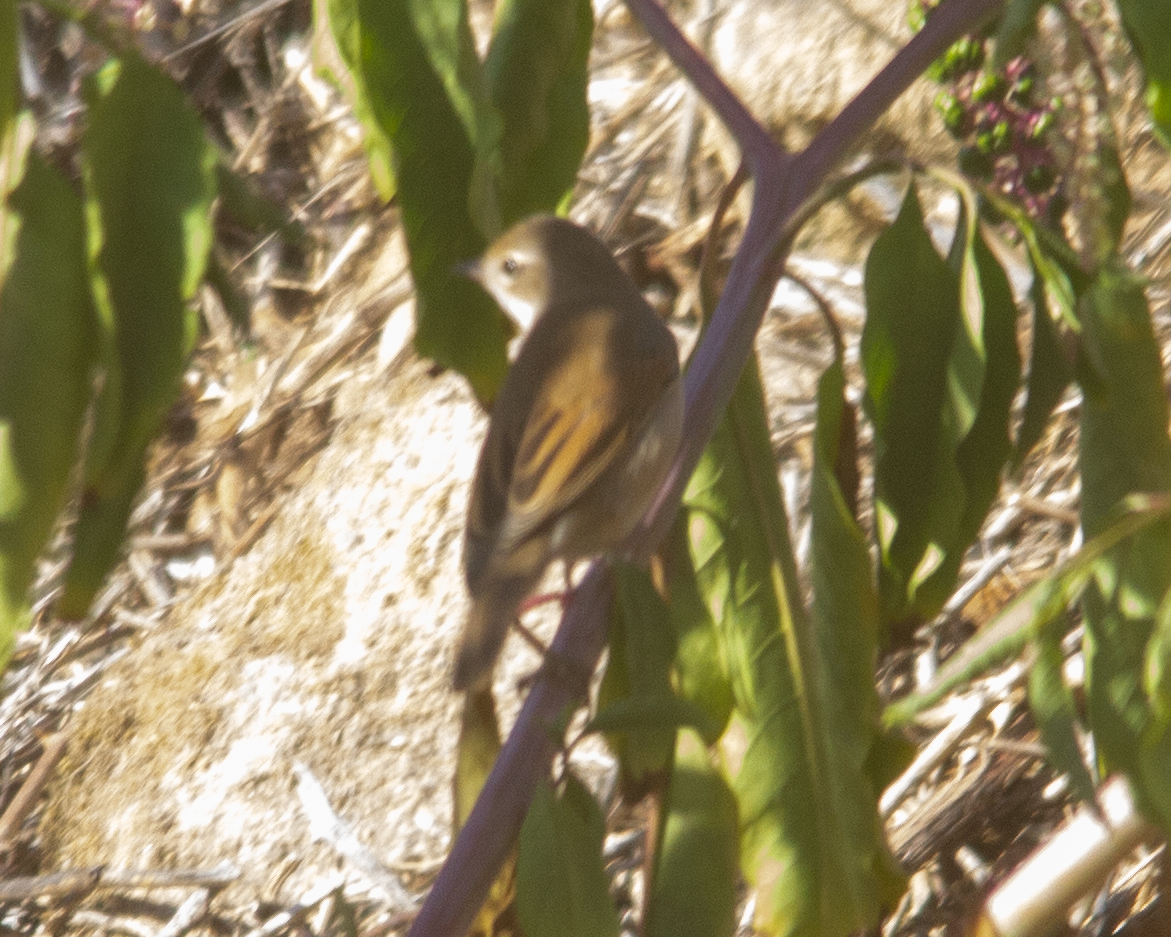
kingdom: Animalia
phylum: Chordata
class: Aves
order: Passeriformes
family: Sylviidae
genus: Sylvia
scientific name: Sylvia communis
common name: Common whitethroat
